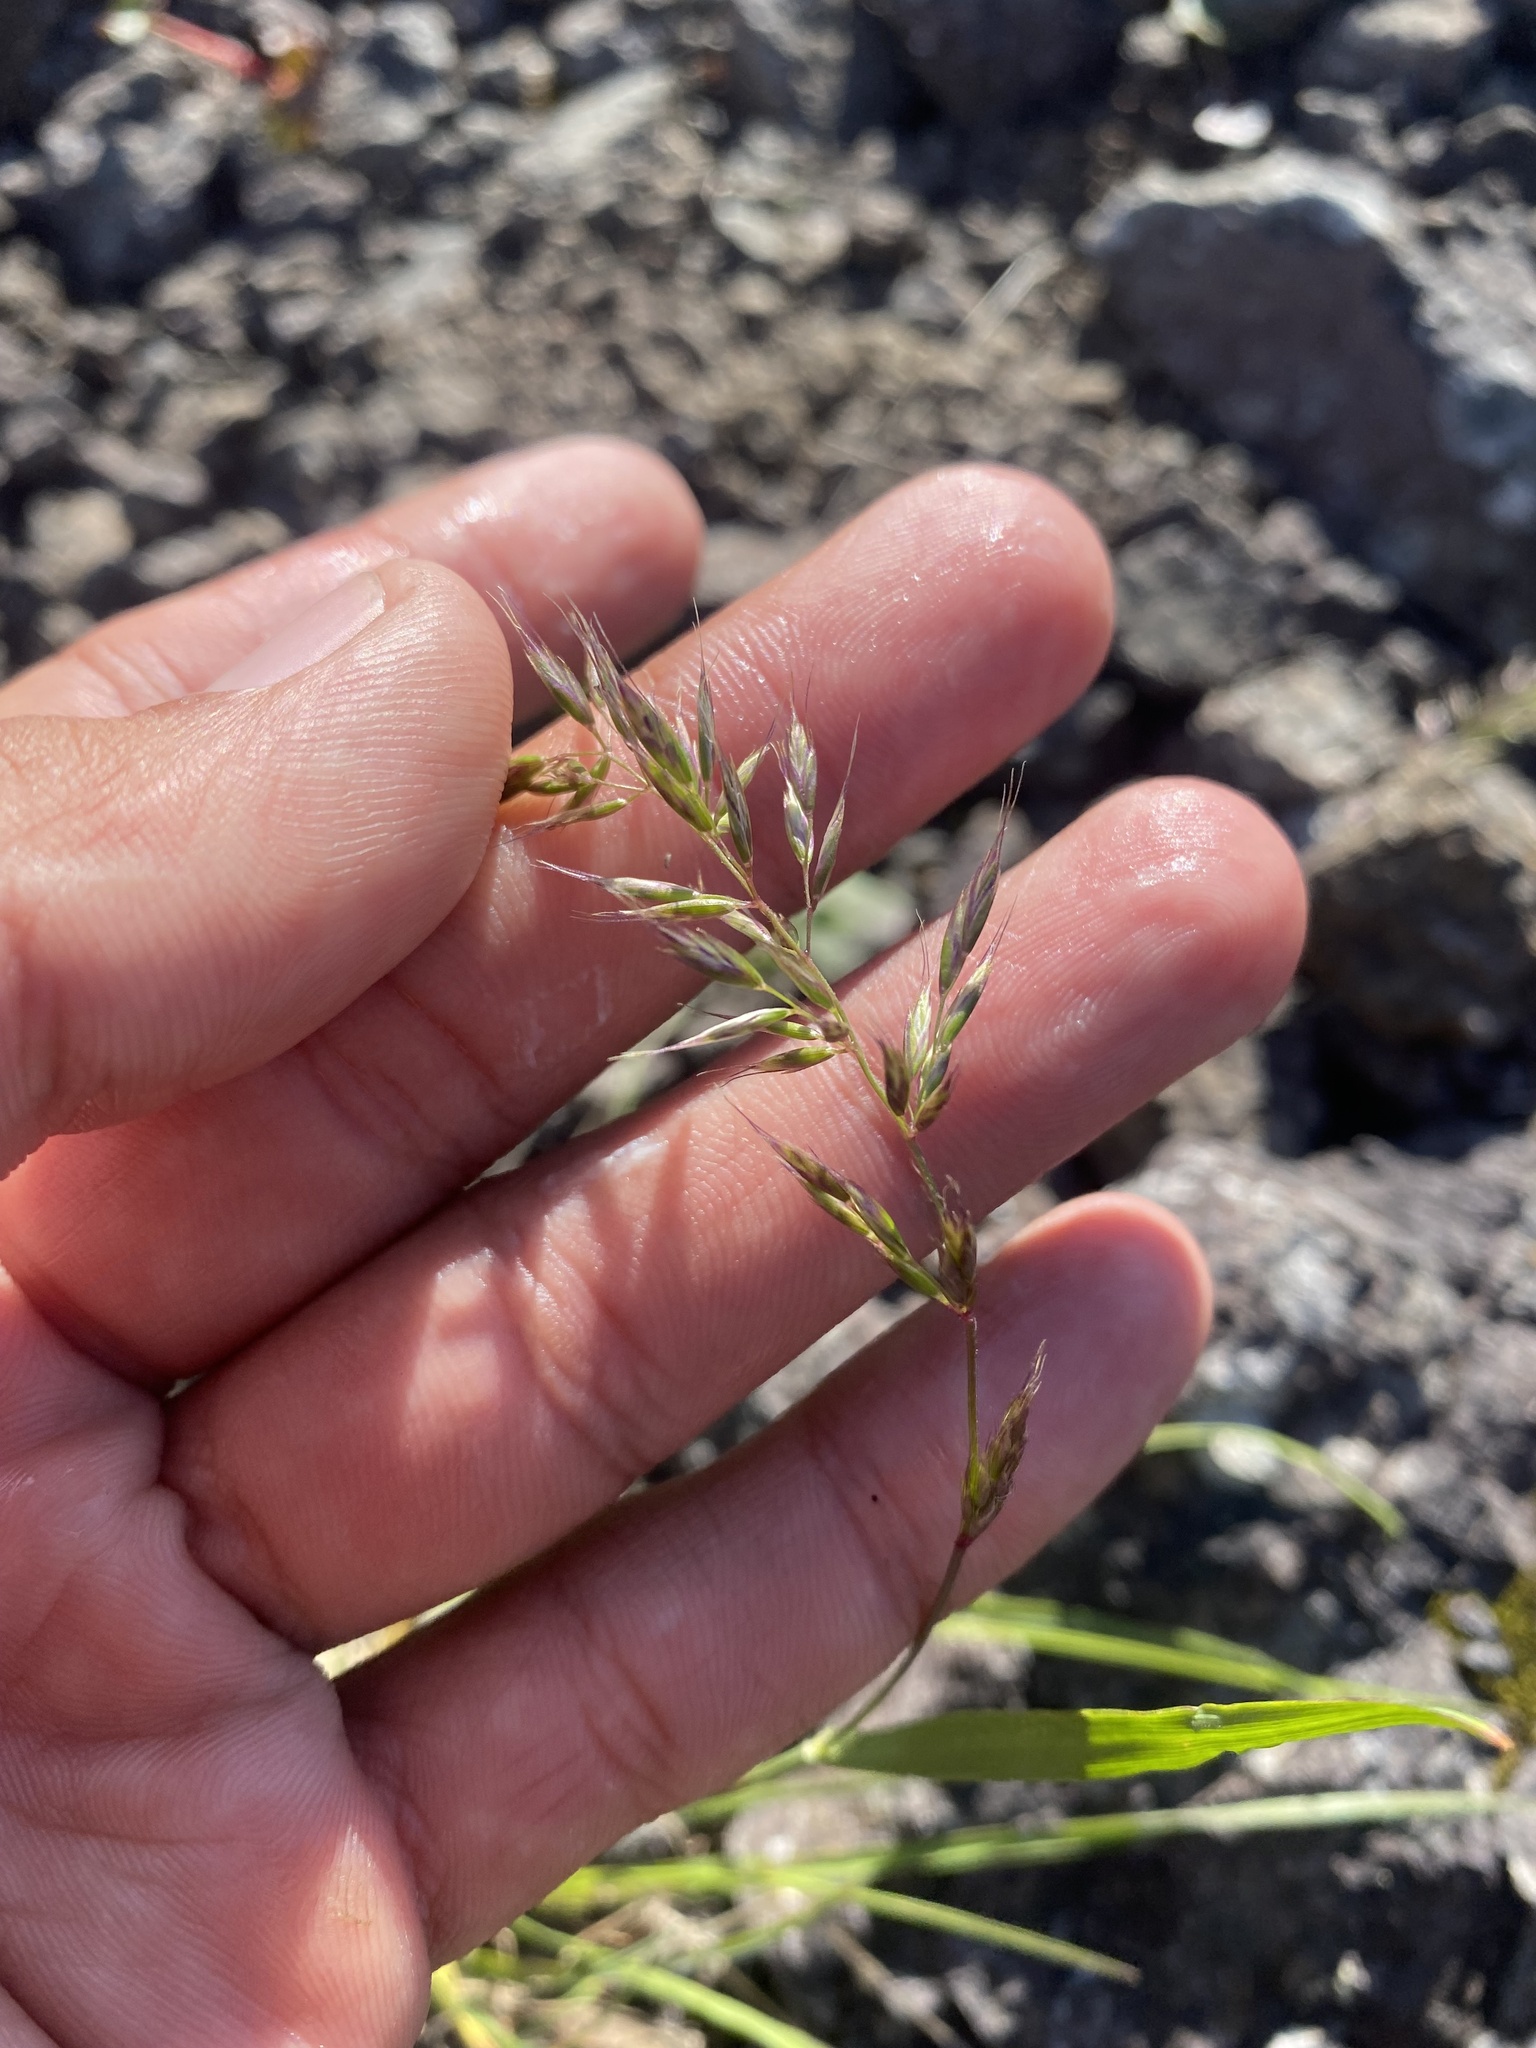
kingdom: Plantae
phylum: Tracheophyta
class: Liliopsida
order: Poales
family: Poaceae
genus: Sibirotrisetum
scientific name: Sibirotrisetum
